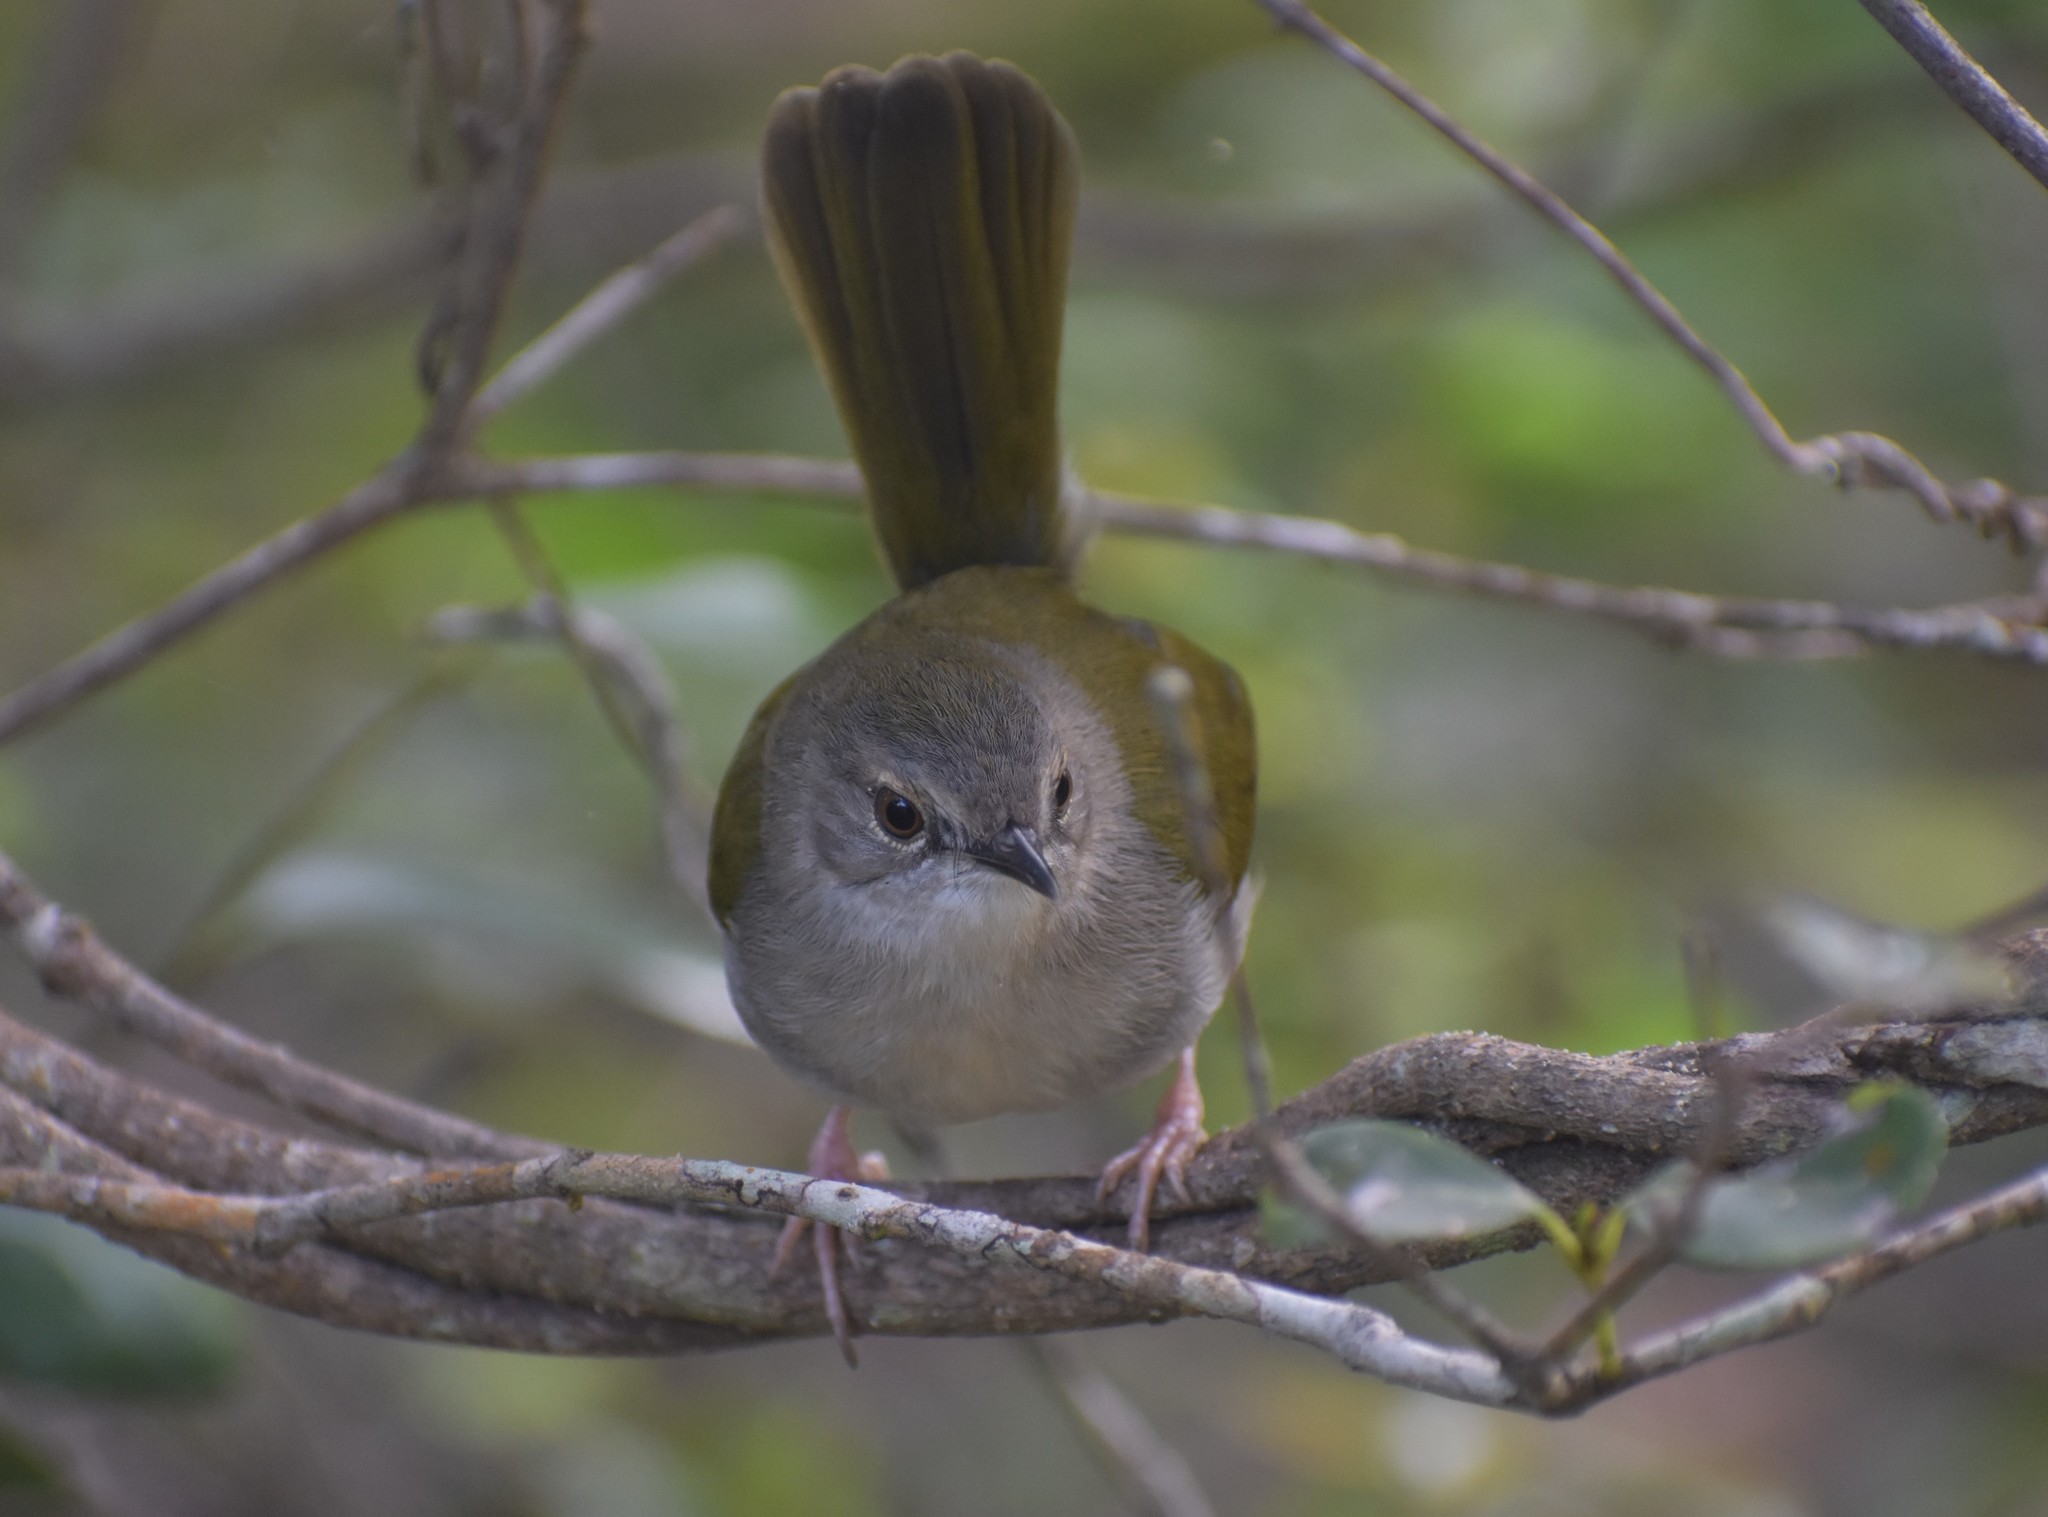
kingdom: Animalia
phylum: Chordata
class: Aves
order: Passeriformes
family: Cisticolidae
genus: Camaroptera
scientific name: Camaroptera brachyura
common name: Green-backed camaroptera
